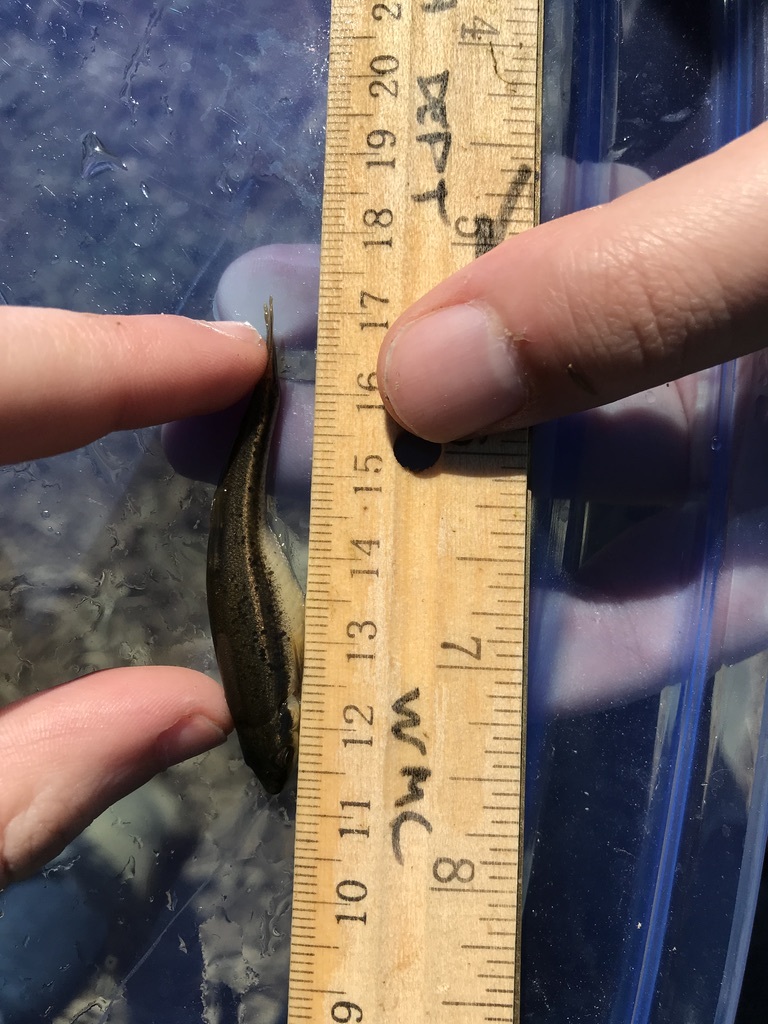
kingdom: Animalia
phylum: Chordata
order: Cypriniformes
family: Cyprinidae
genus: Rhinichthys
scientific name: Rhinichthys atratulus
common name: Eastern blacknose dace
